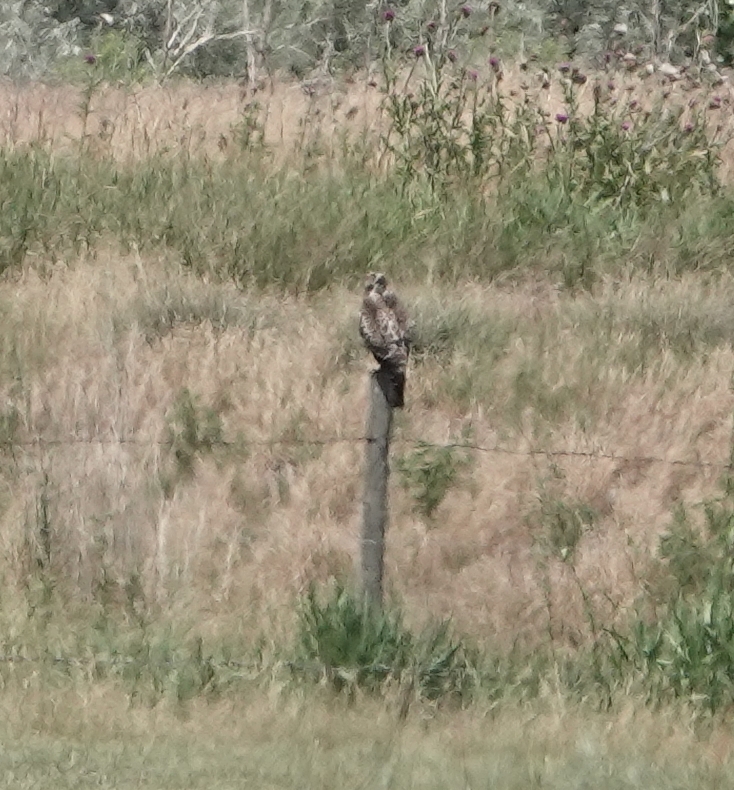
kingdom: Animalia
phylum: Chordata
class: Aves
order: Accipitriformes
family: Accipitridae
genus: Buteo
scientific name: Buteo swainsoni
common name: Swainson's hawk
